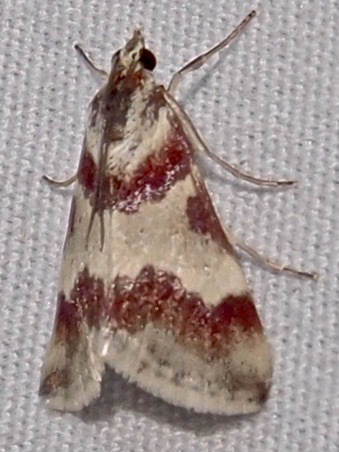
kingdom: Animalia
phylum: Arthropoda
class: Insecta
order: Lepidoptera
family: Crambidae
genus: Noctuelia
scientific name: Noctuelia Mimoschinia rufofascialis
